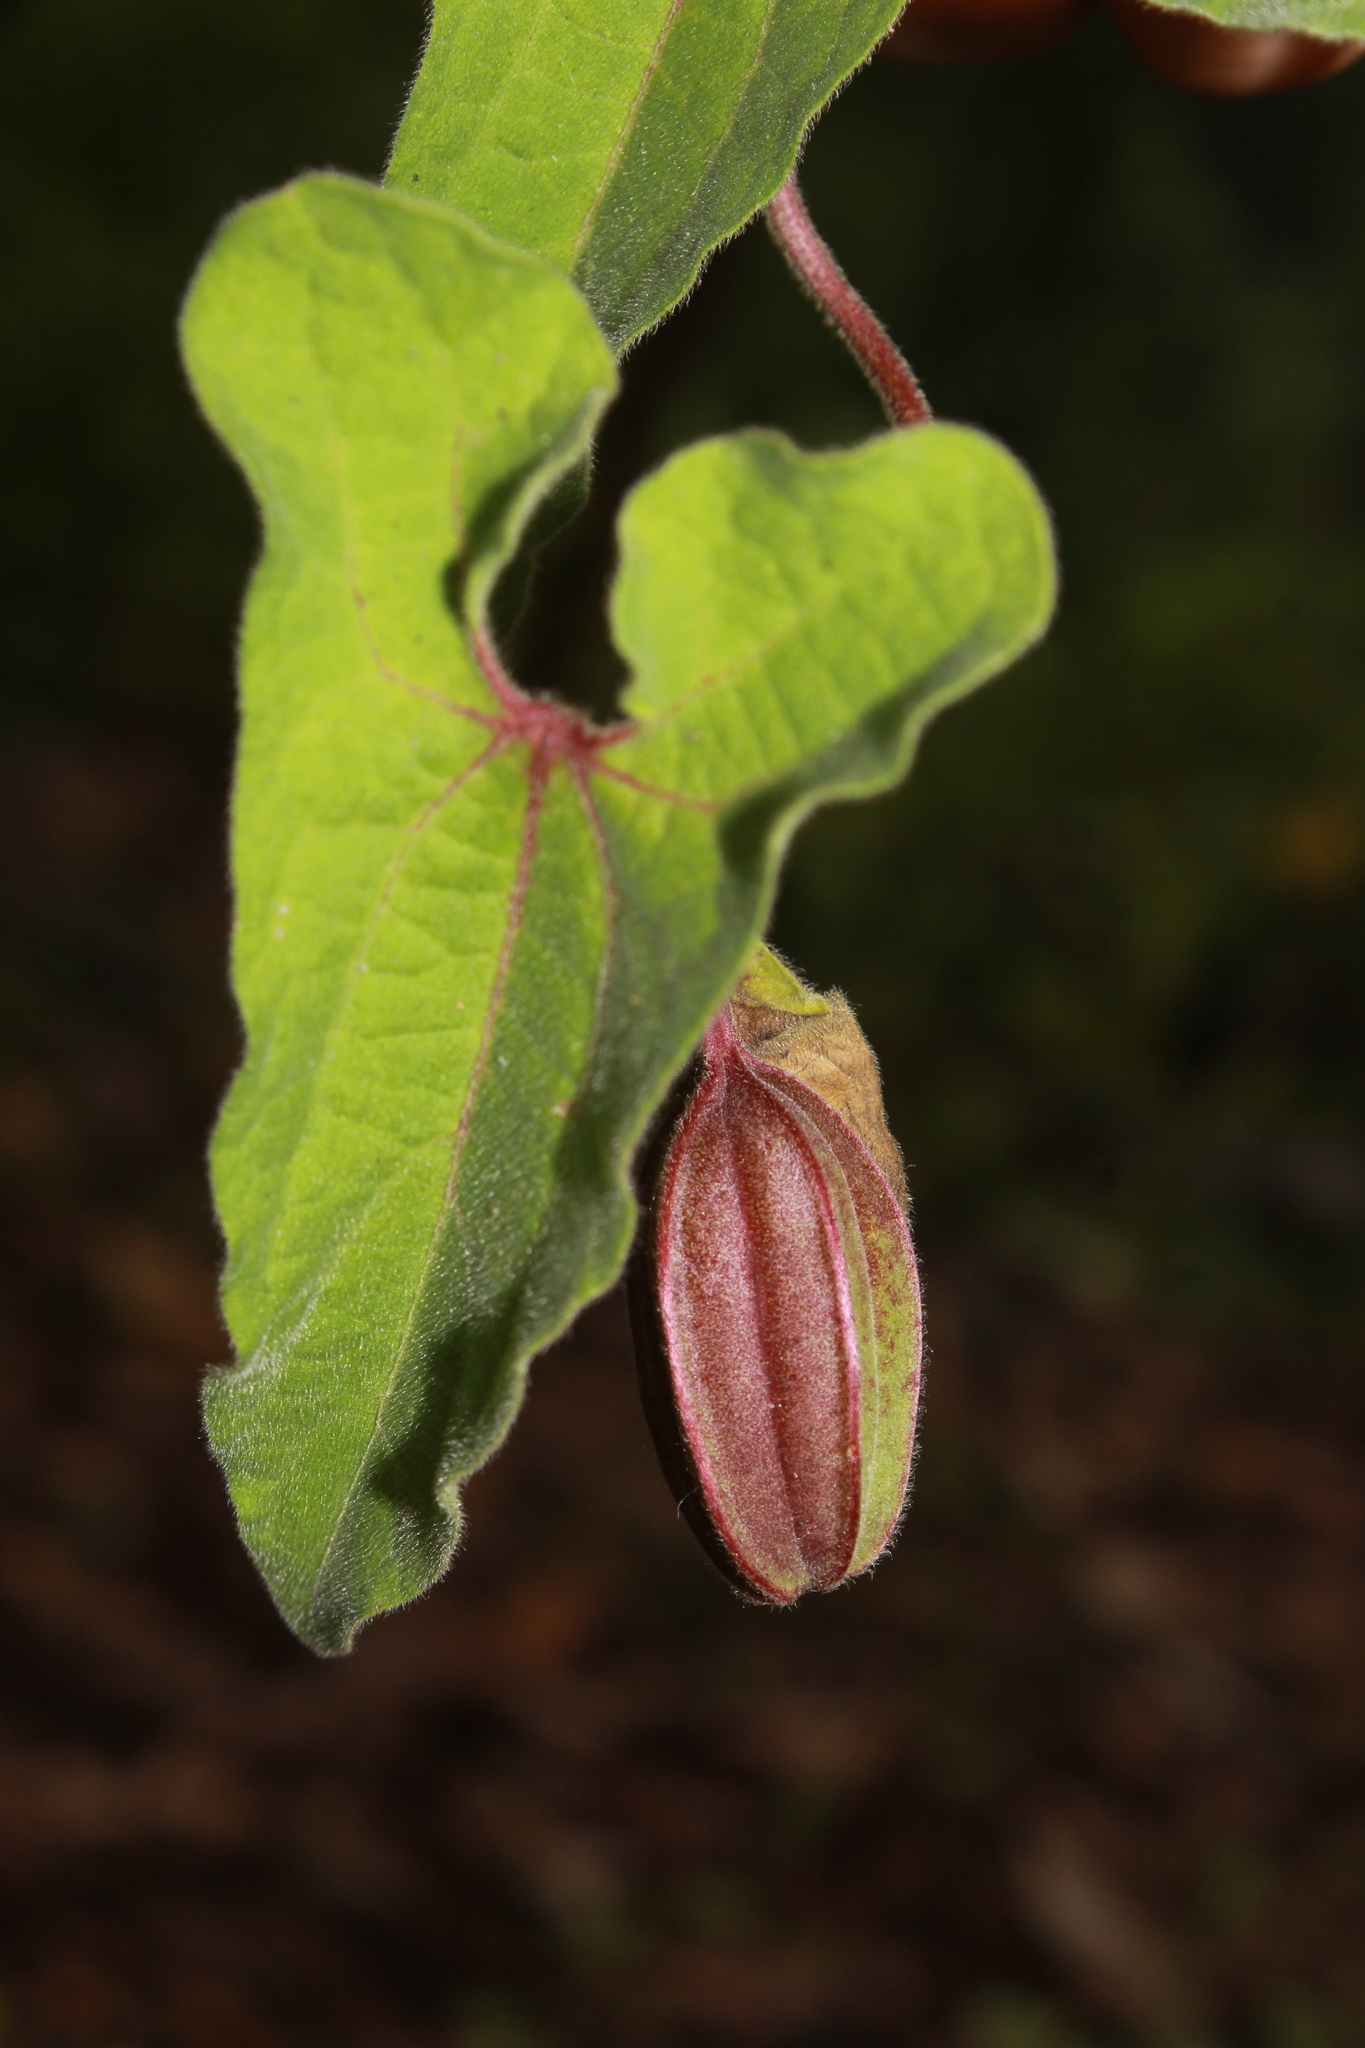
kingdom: Plantae
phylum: Tracheophyta
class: Magnoliopsida
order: Piperales
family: Aristolochiaceae
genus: Aristolochia
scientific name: Aristolochia pringlei
